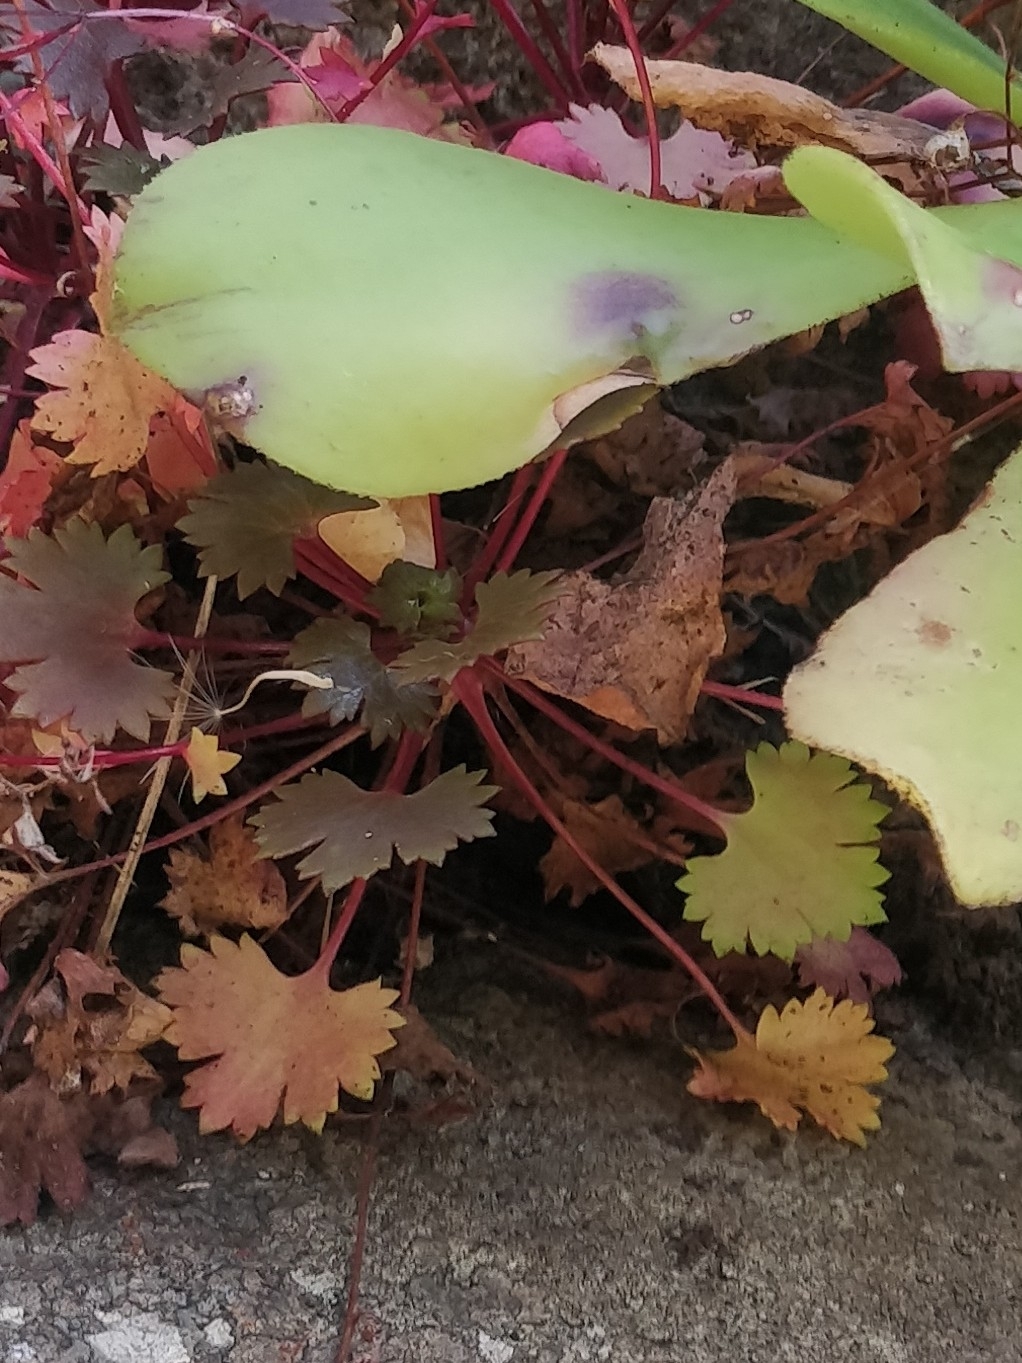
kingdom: Plantae
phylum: Tracheophyta
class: Magnoliopsida
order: Saxifragales
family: Saxifragaceae
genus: Saxifraga
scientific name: Saxifraga maderensis
